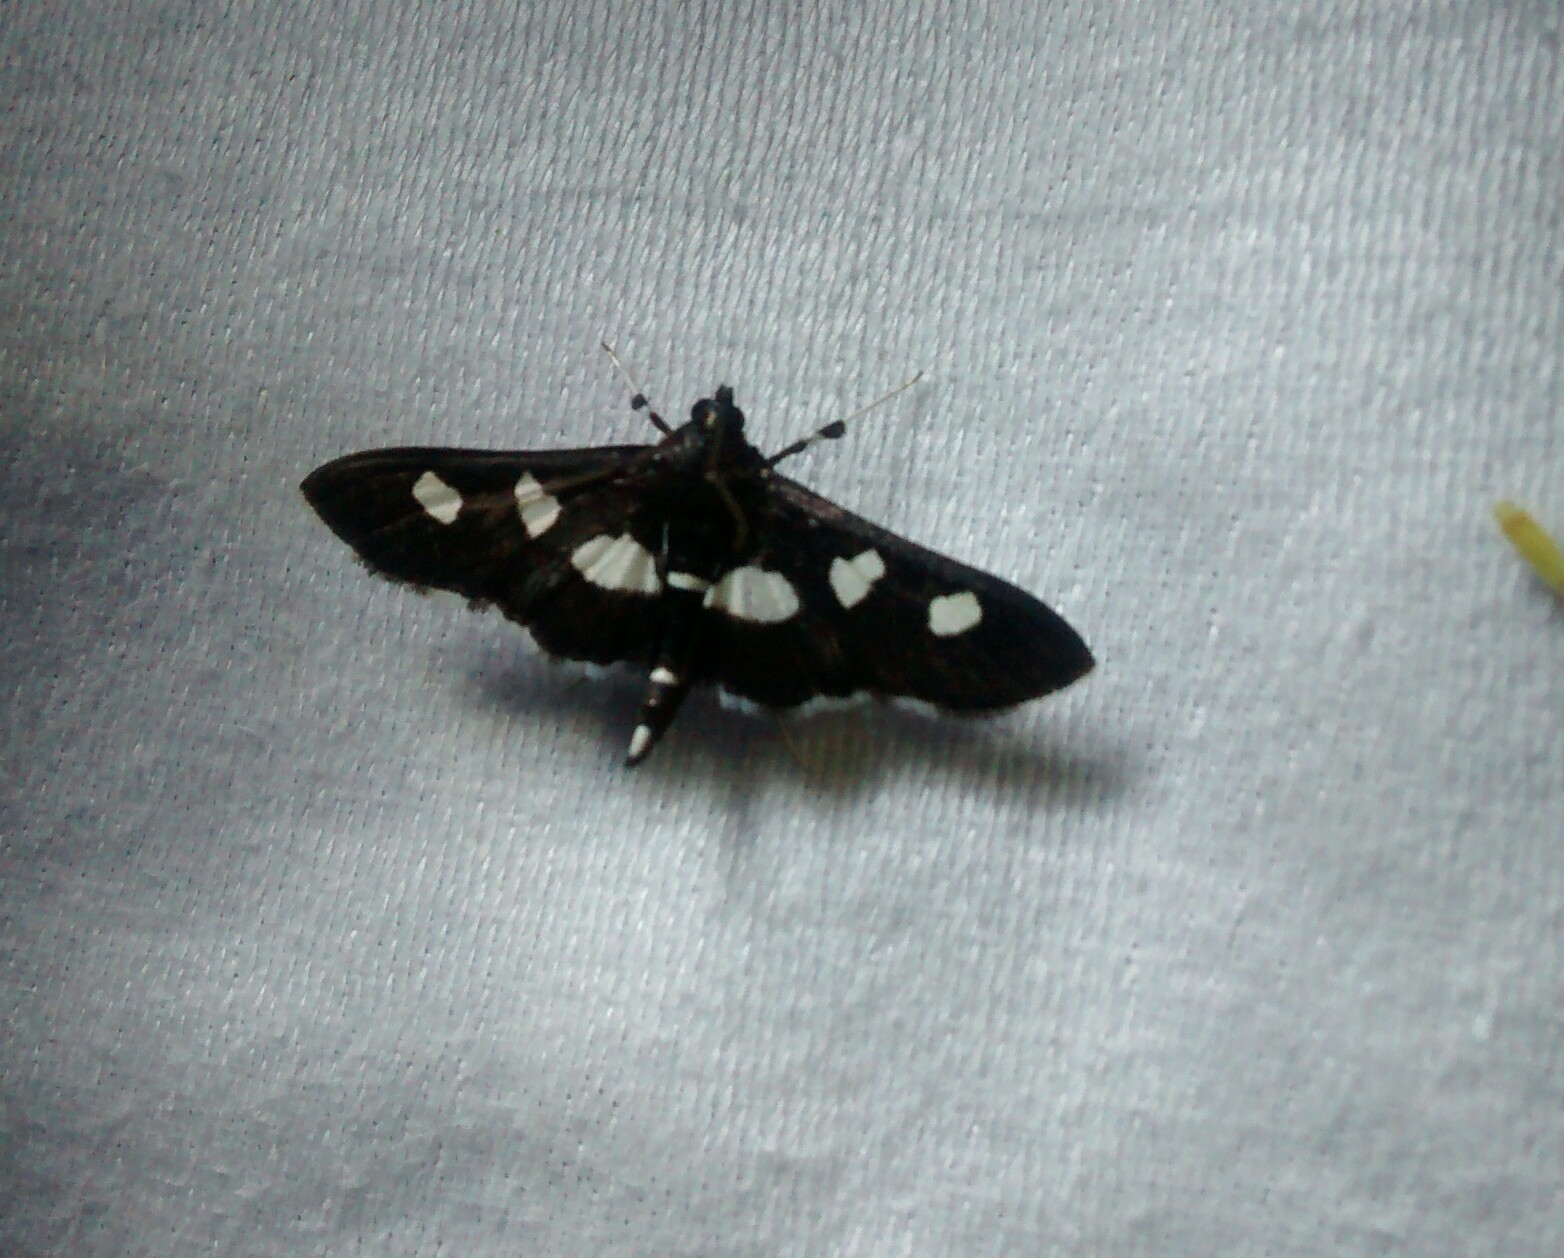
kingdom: Animalia
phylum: Arthropoda
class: Insecta
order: Lepidoptera
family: Crambidae
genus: Desmia
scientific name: Desmia
